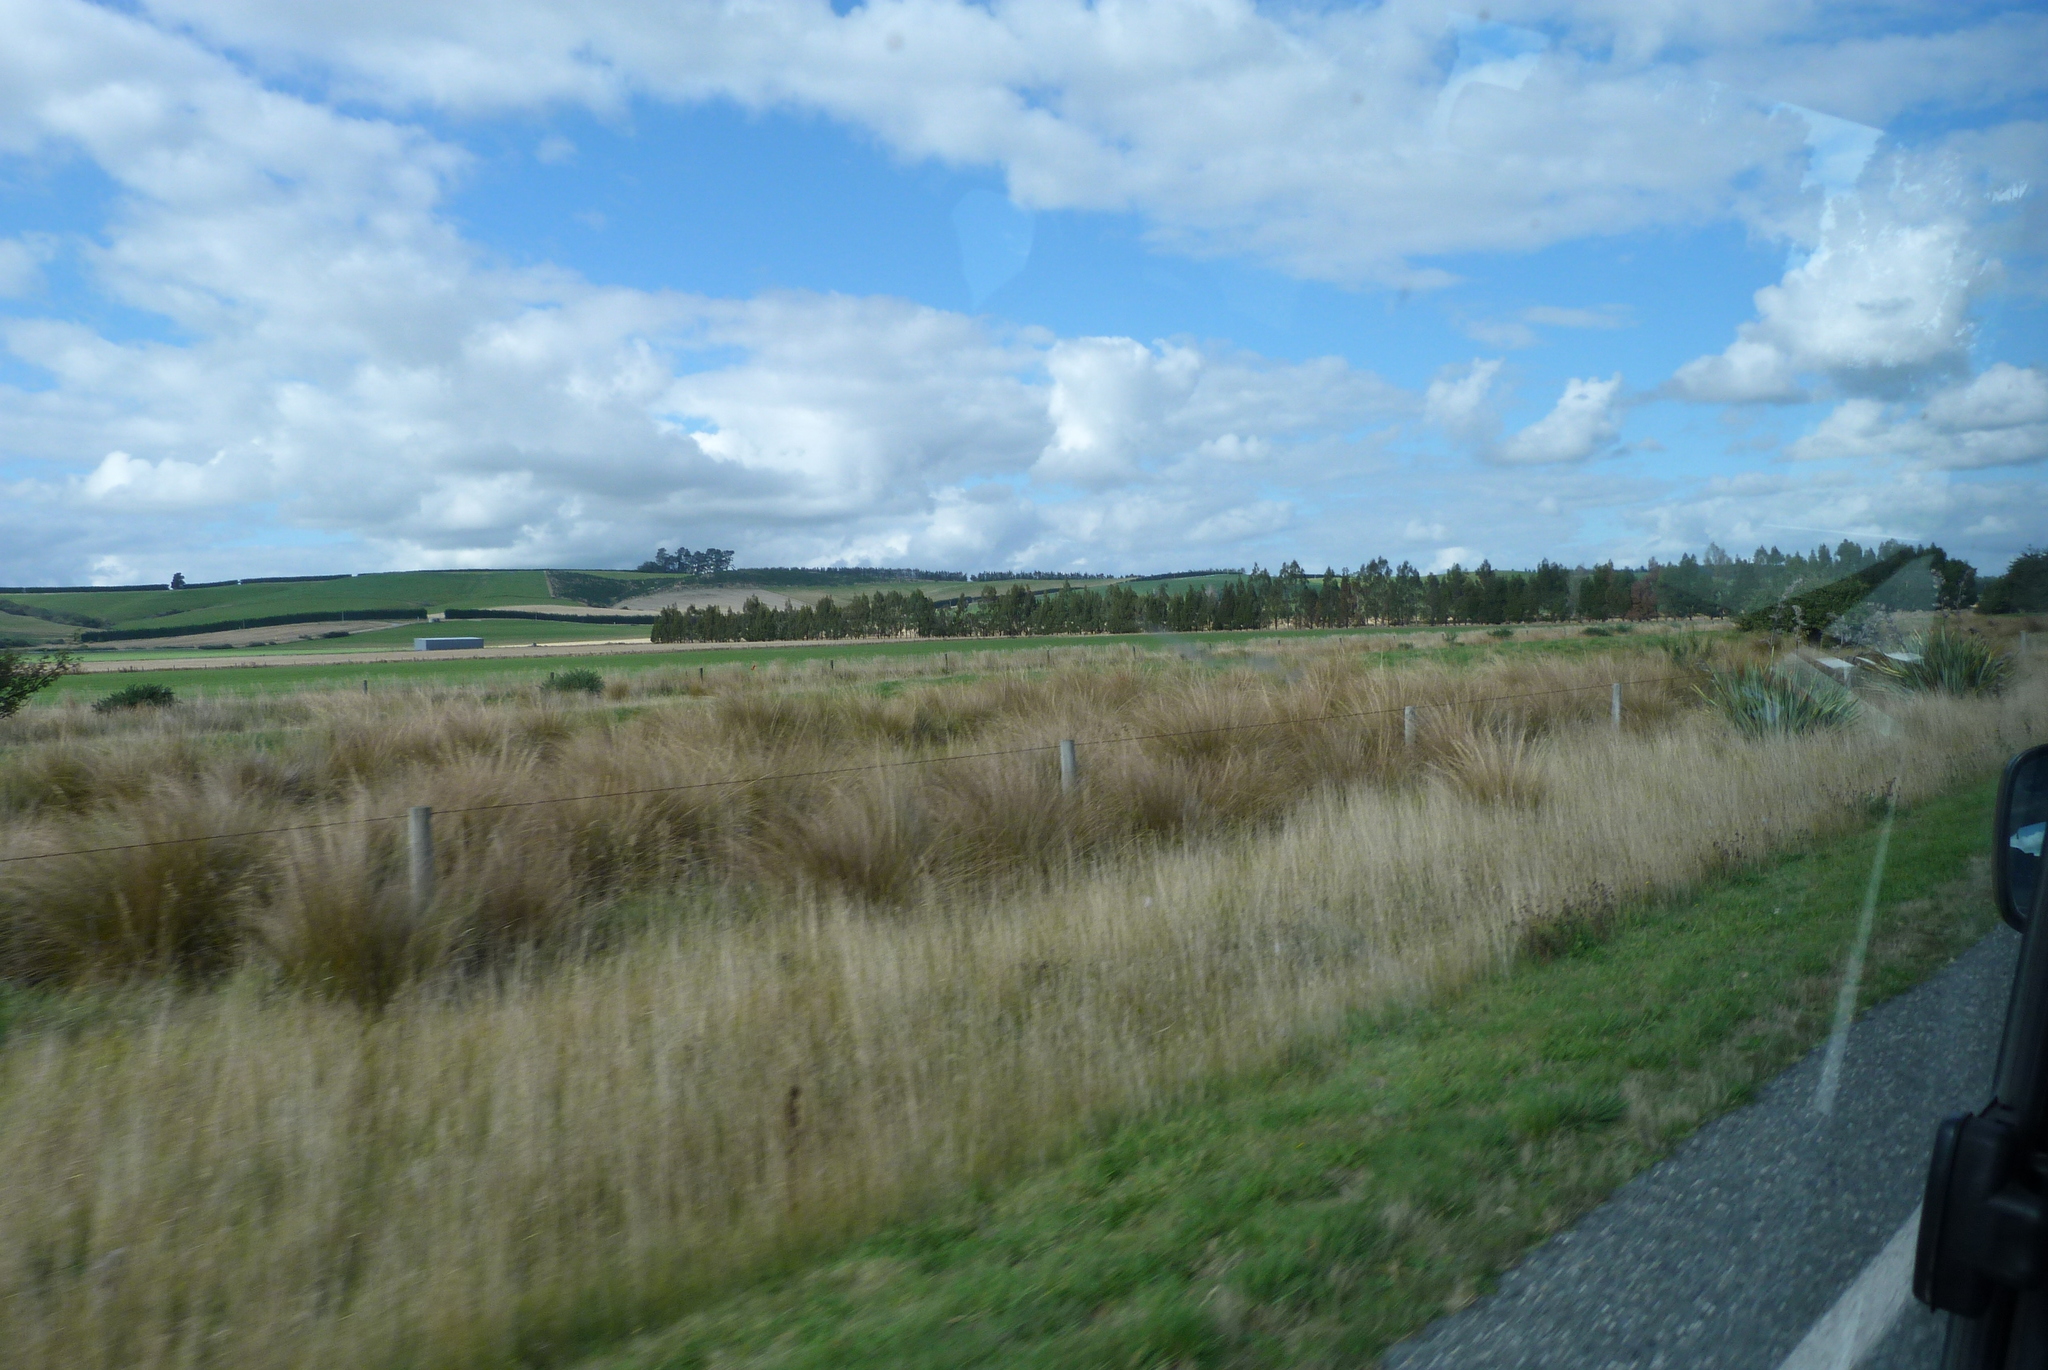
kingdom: Plantae
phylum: Tracheophyta
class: Liliopsida
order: Poales
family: Poaceae
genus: Chionochloa
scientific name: Chionochloa rubra
